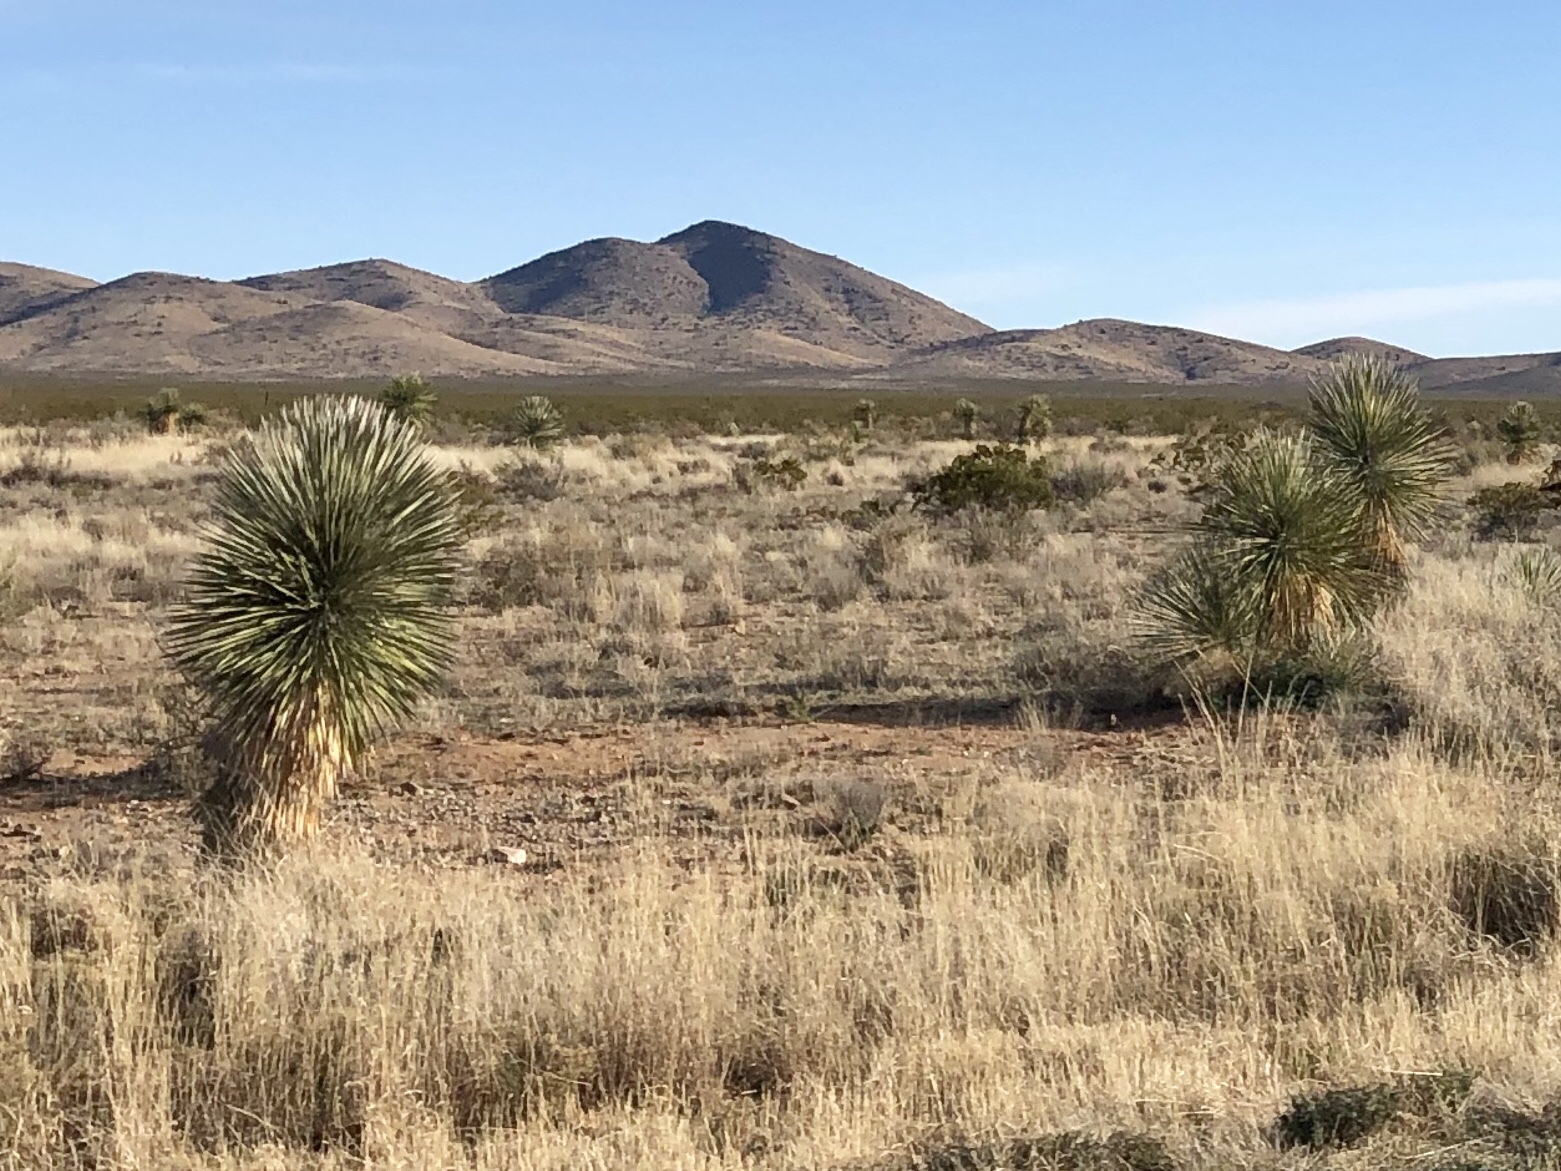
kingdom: Plantae
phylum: Tracheophyta
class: Liliopsida
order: Asparagales
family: Asparagaceae
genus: Yucca
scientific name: Yucca elata
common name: Palmella
